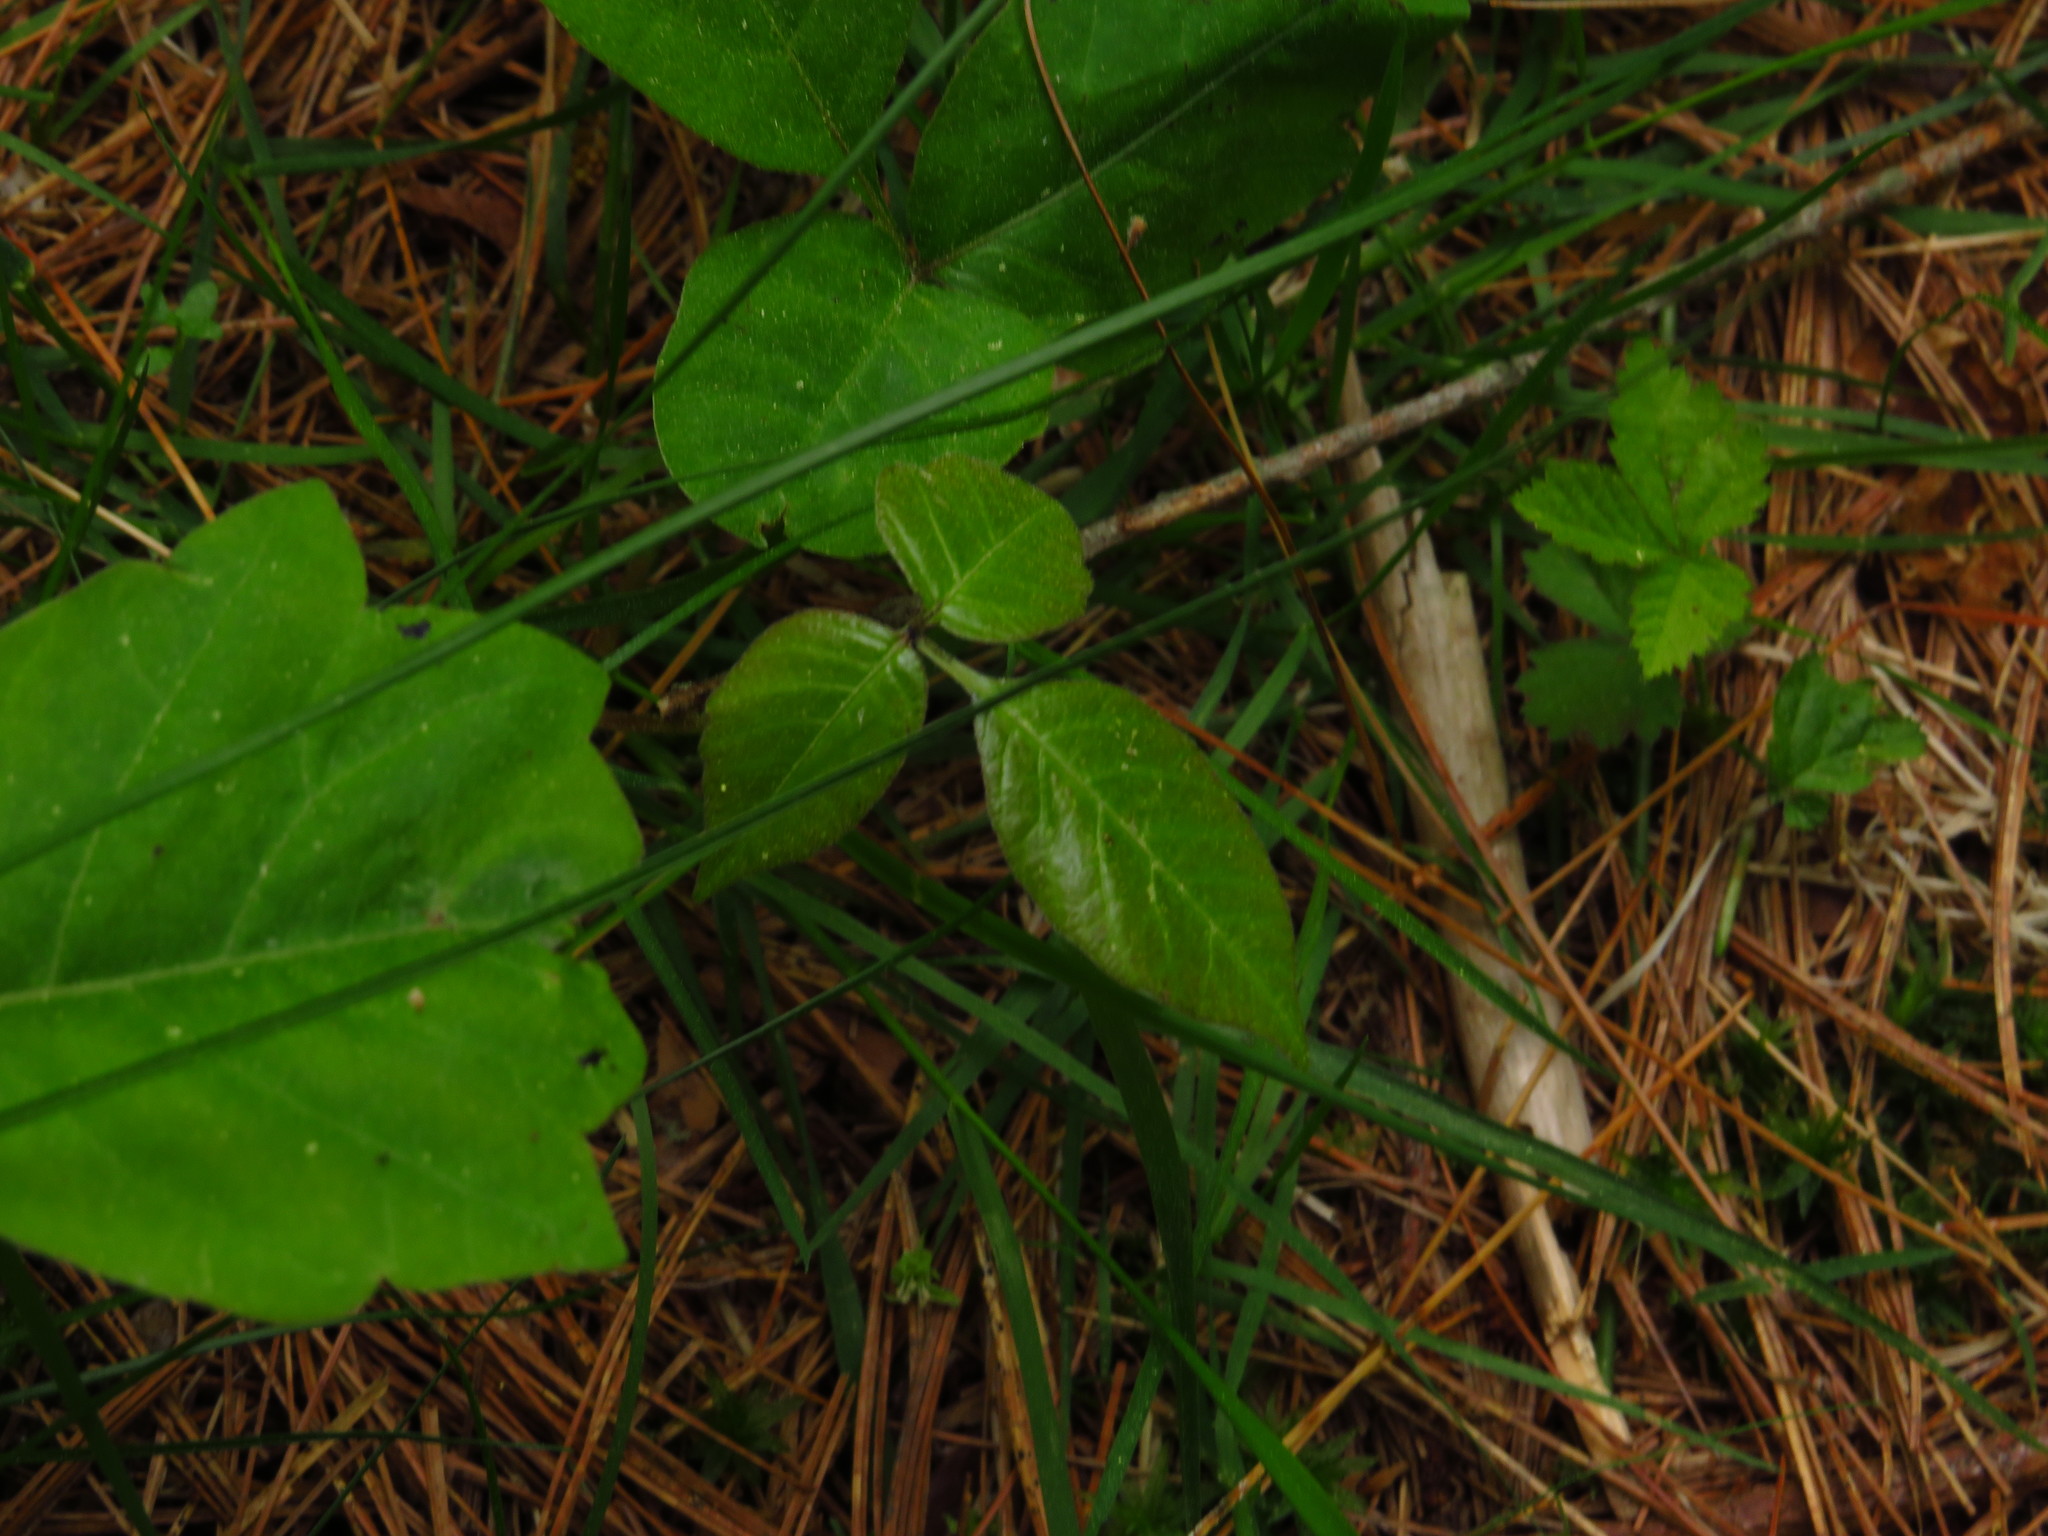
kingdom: Plantae
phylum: Tracheophyta
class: Magnoliopsida
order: Sapindales
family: Anacardiaceae
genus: Toxicodendron
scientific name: Toxicodendron radicans
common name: Poison ivy
